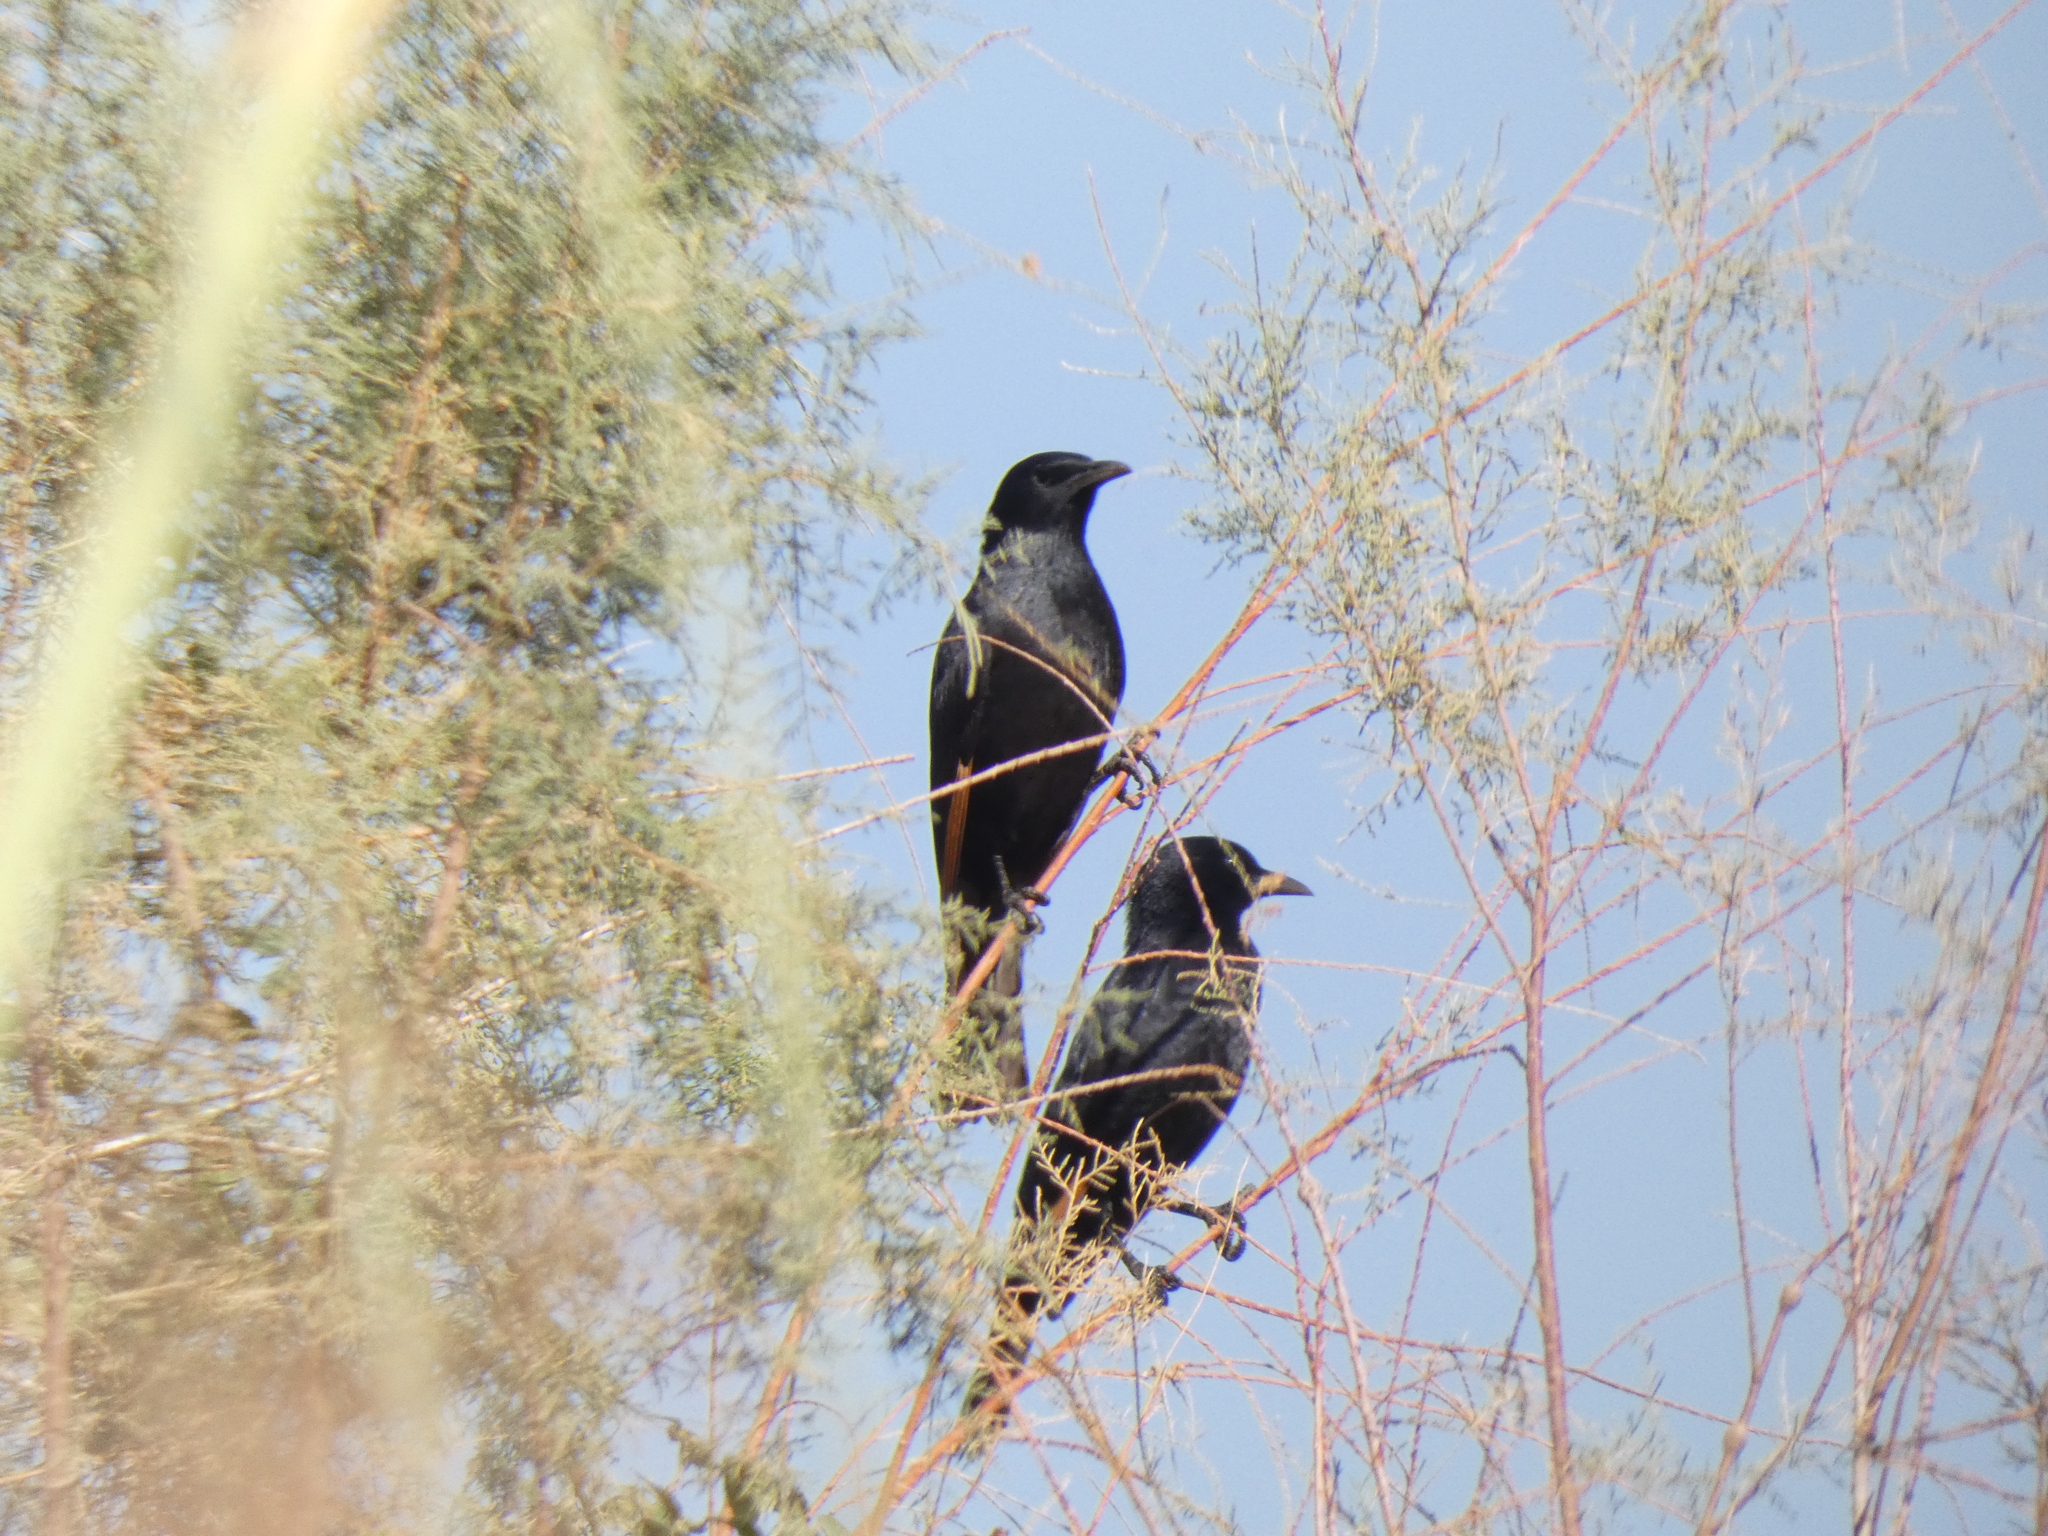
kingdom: Animalia
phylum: Chordata
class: Aves
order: Passeriformes
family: Sturnidae
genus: Onychognathus
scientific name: Onychognathus tristramii
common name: Tristram's starling
